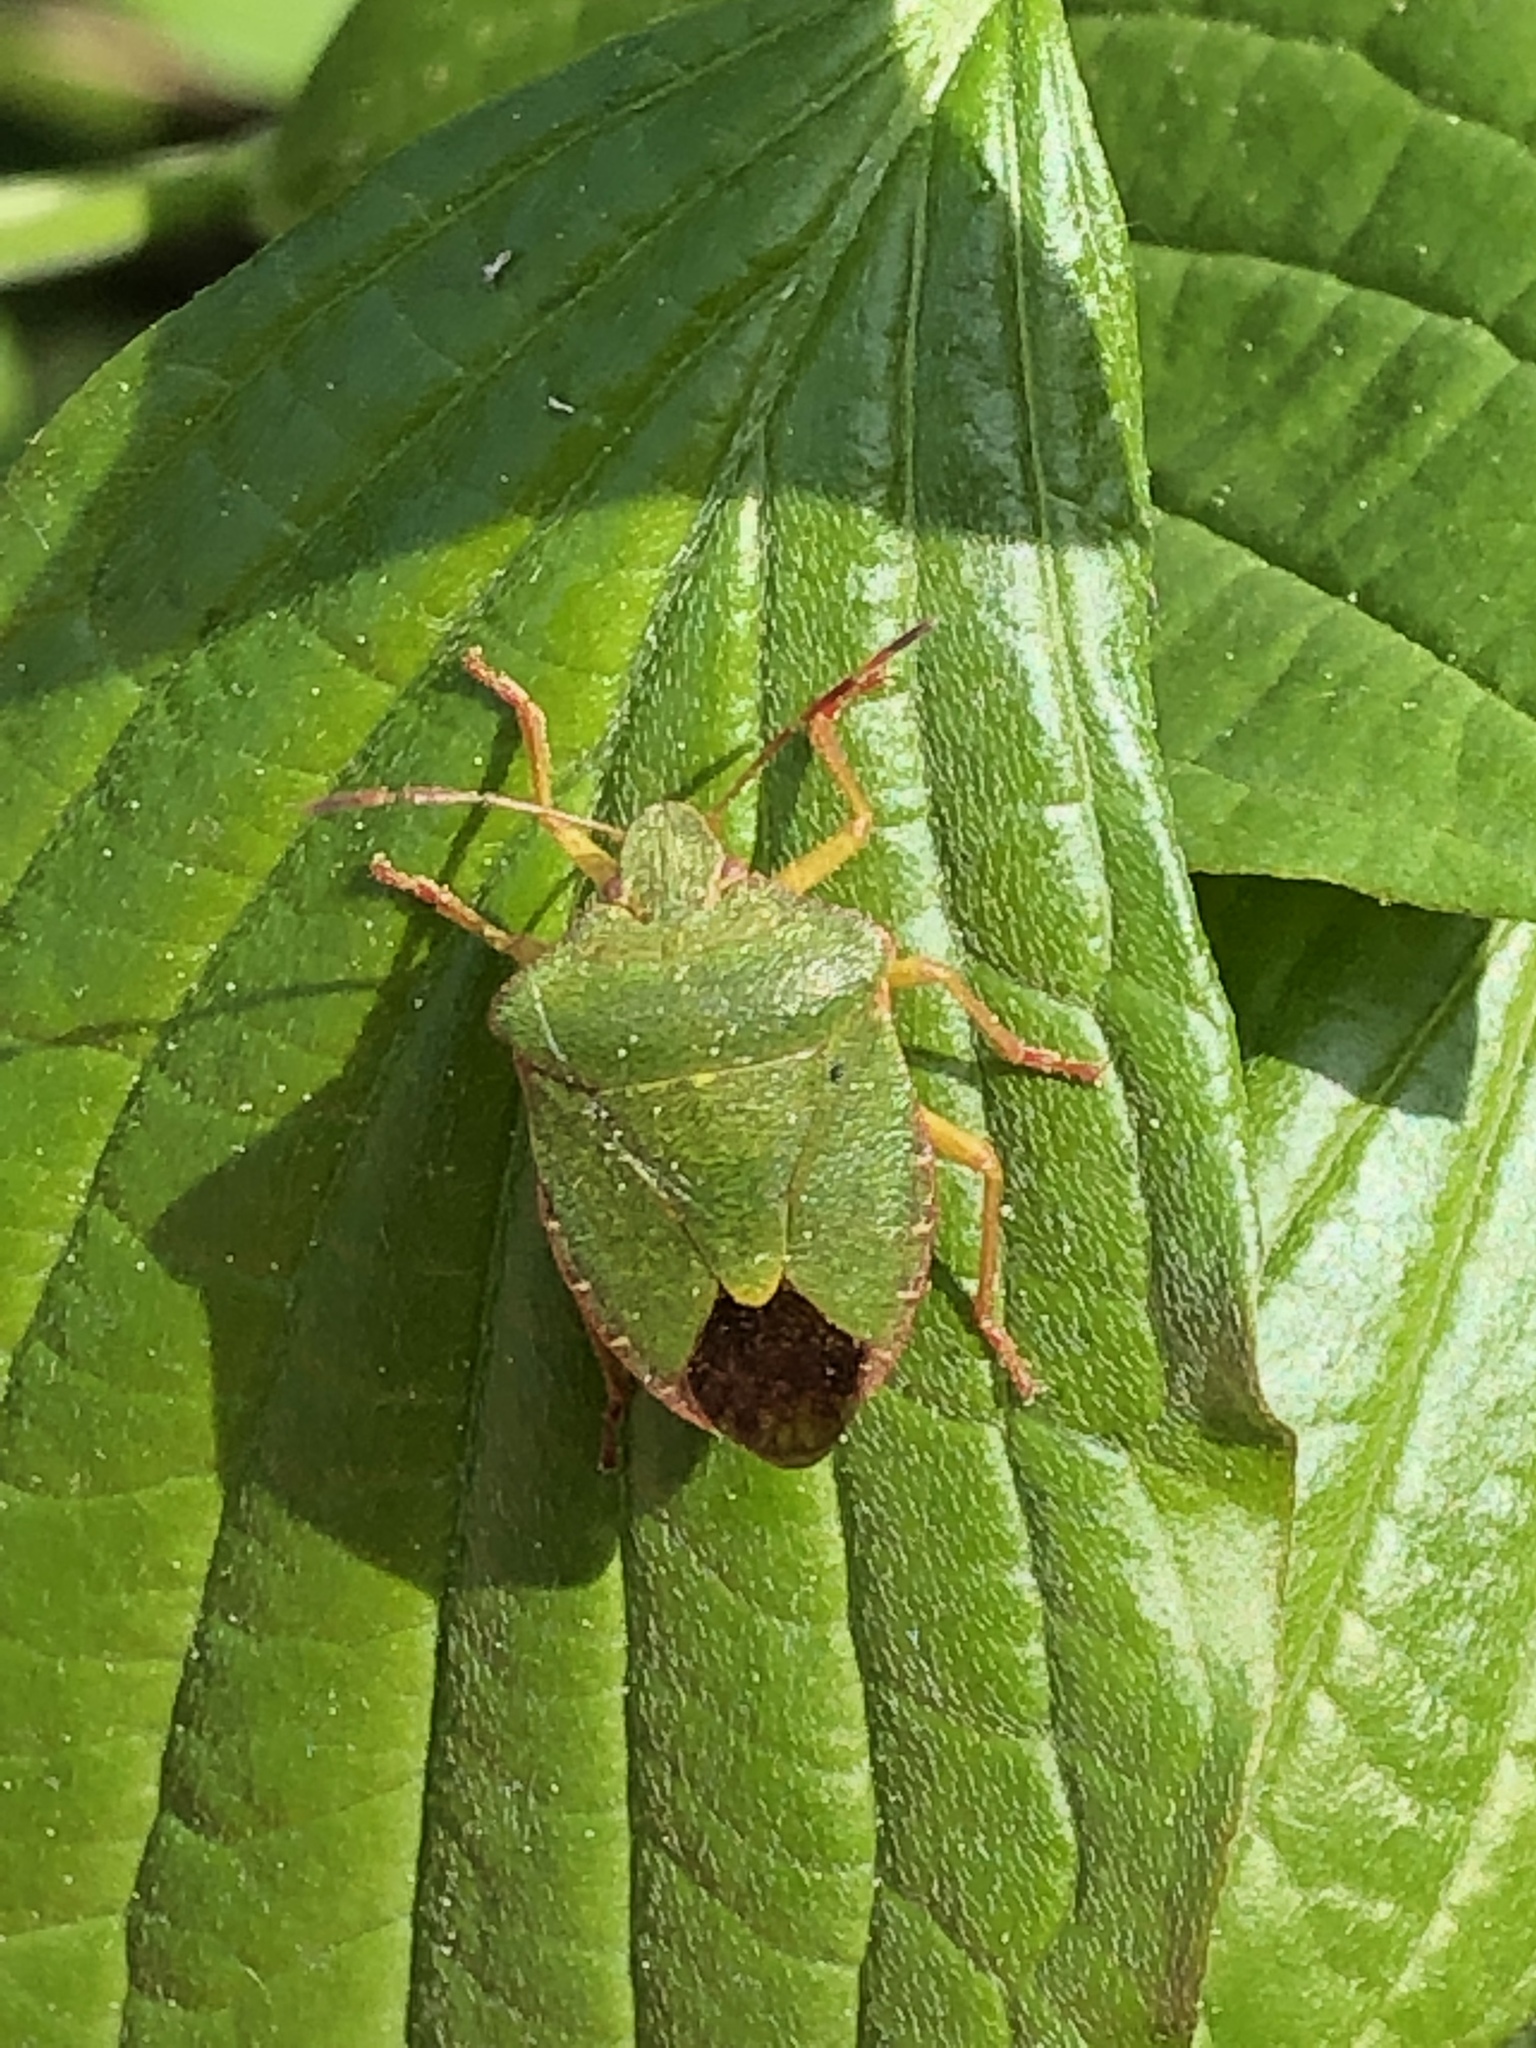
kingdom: Animalia
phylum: Arthropoda
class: Insecta
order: Hemiptera
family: Pentatomidae
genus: Palomena
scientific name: Palomena prasina
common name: Green shieldbug
